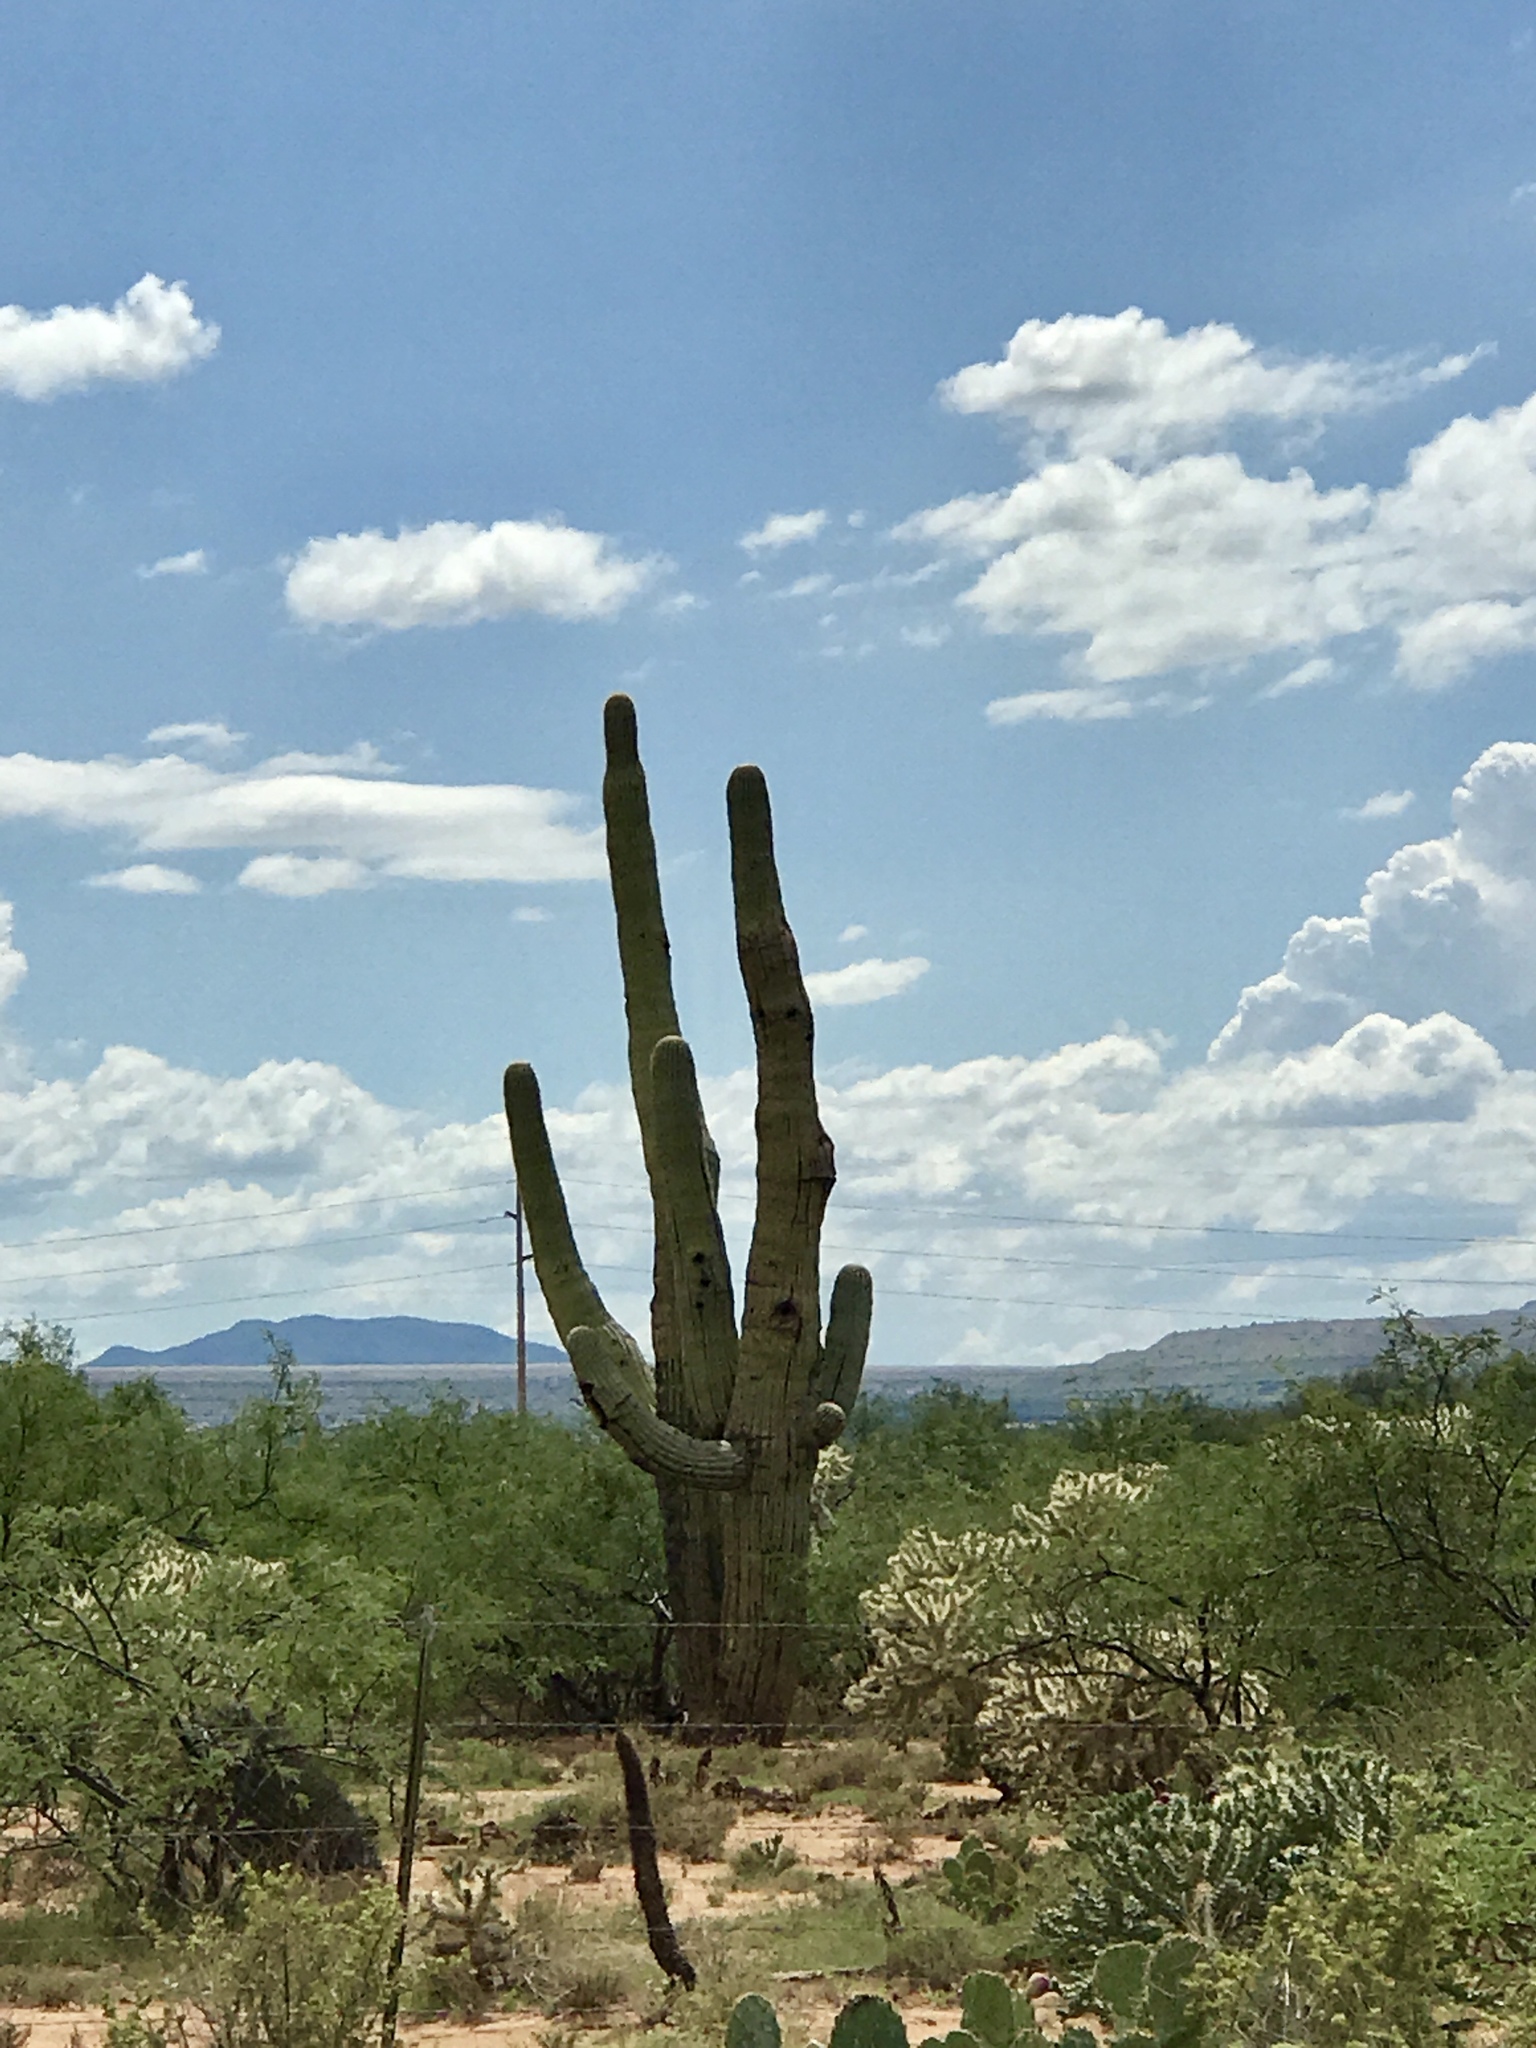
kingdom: Plantae
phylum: Tracheophyta
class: Magnoliopsida
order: Caryophyllales
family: Cactaceae
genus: Carnegiea
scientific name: Carnegiea gigantea
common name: Saguaro
